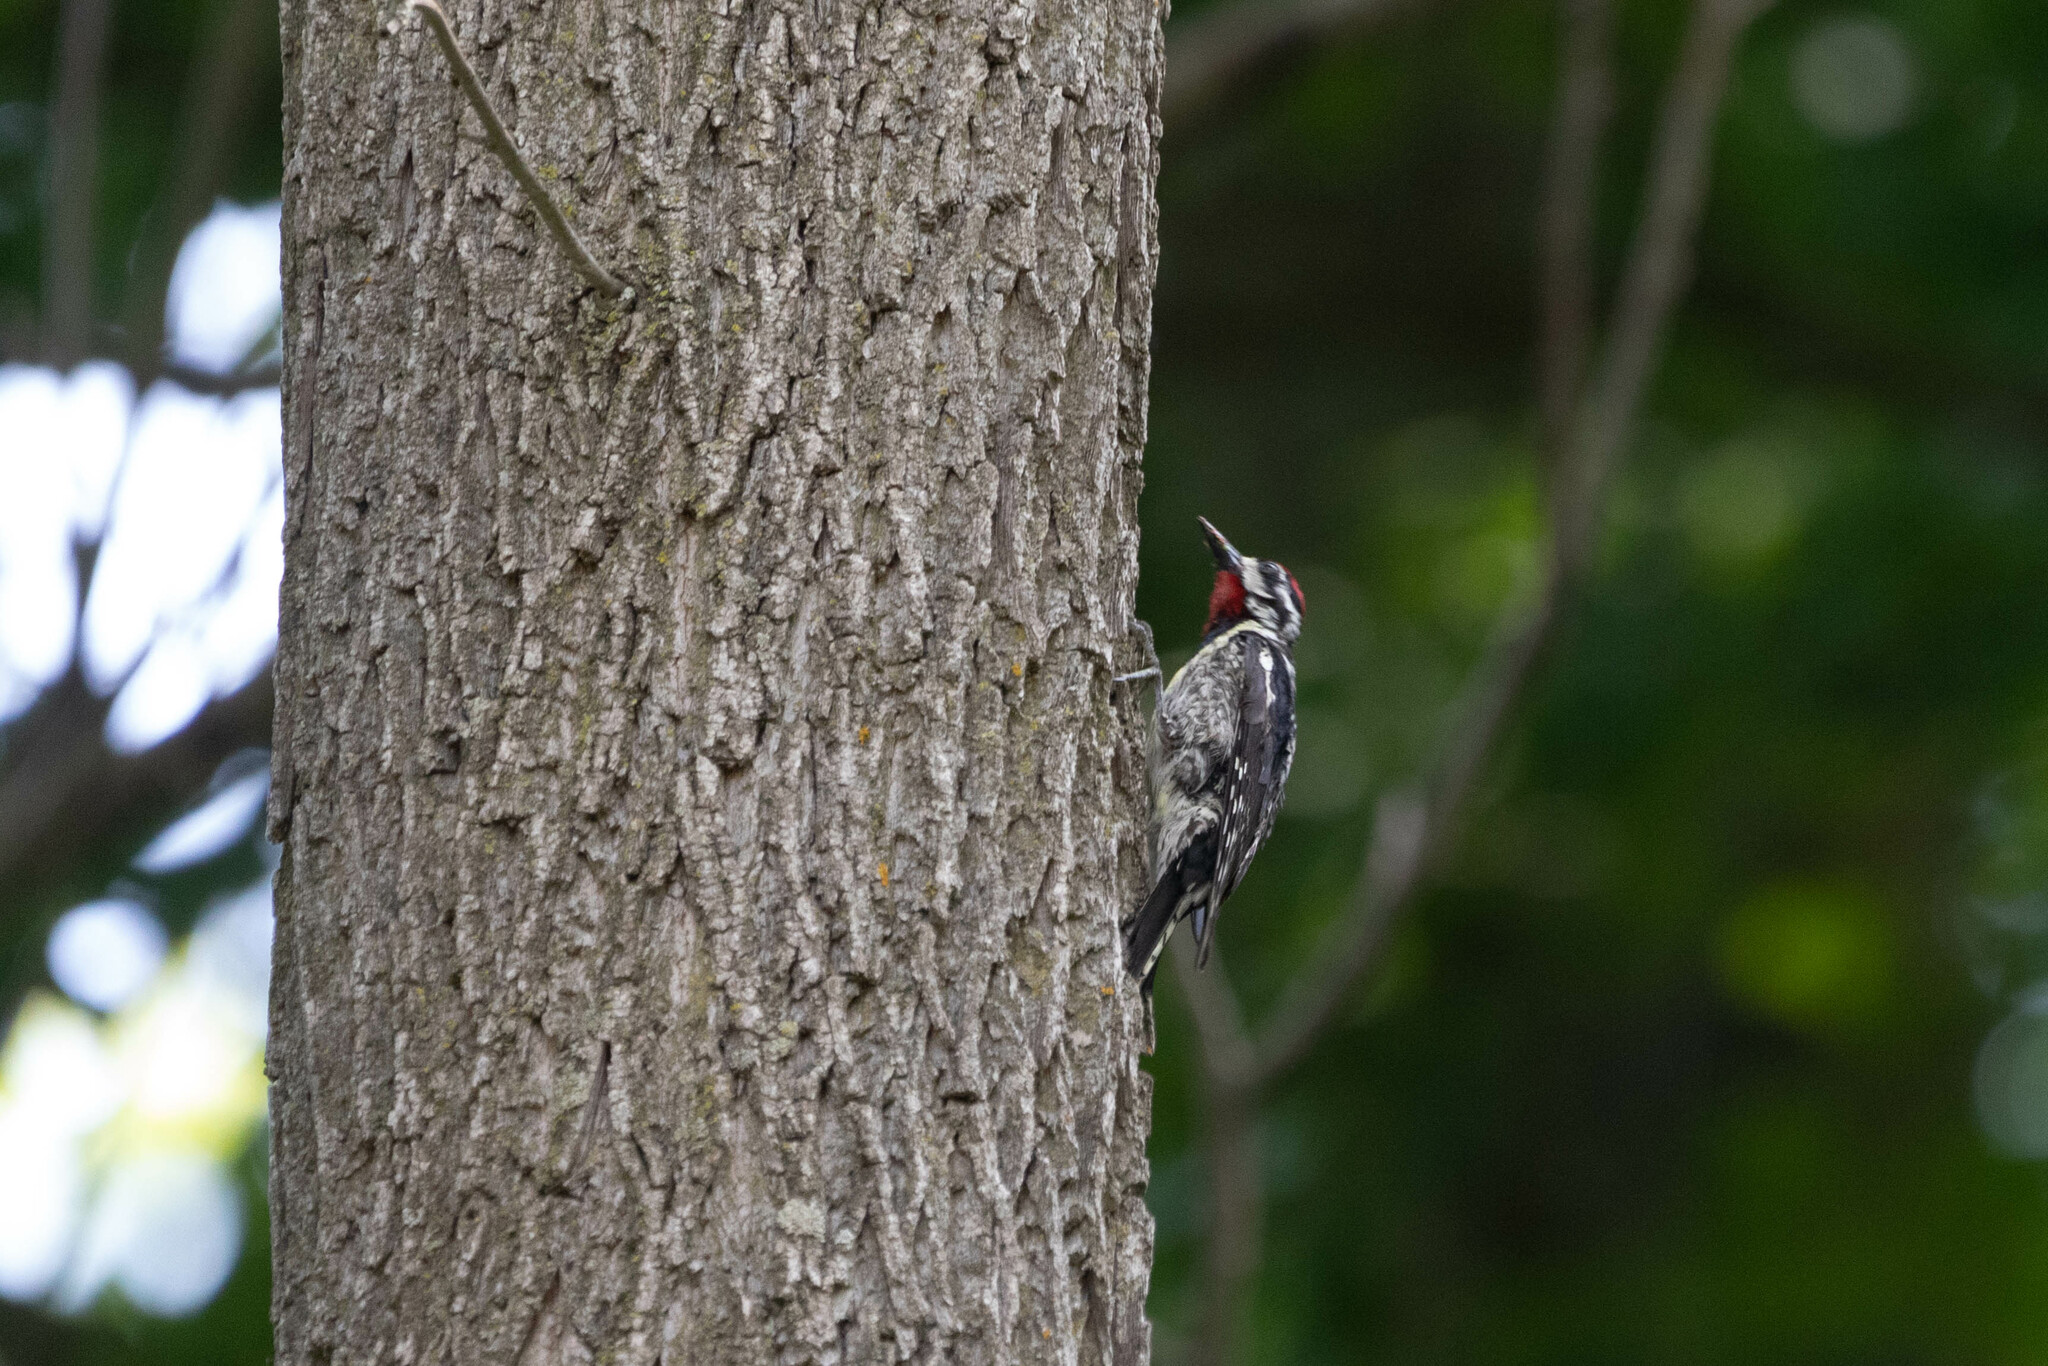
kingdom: Animalia
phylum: Chordata
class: Aves
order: Piciformes
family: Picidae
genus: Sphyrapicus
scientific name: Sphyrapicus varius
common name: Yellow-bellied sapsucker
